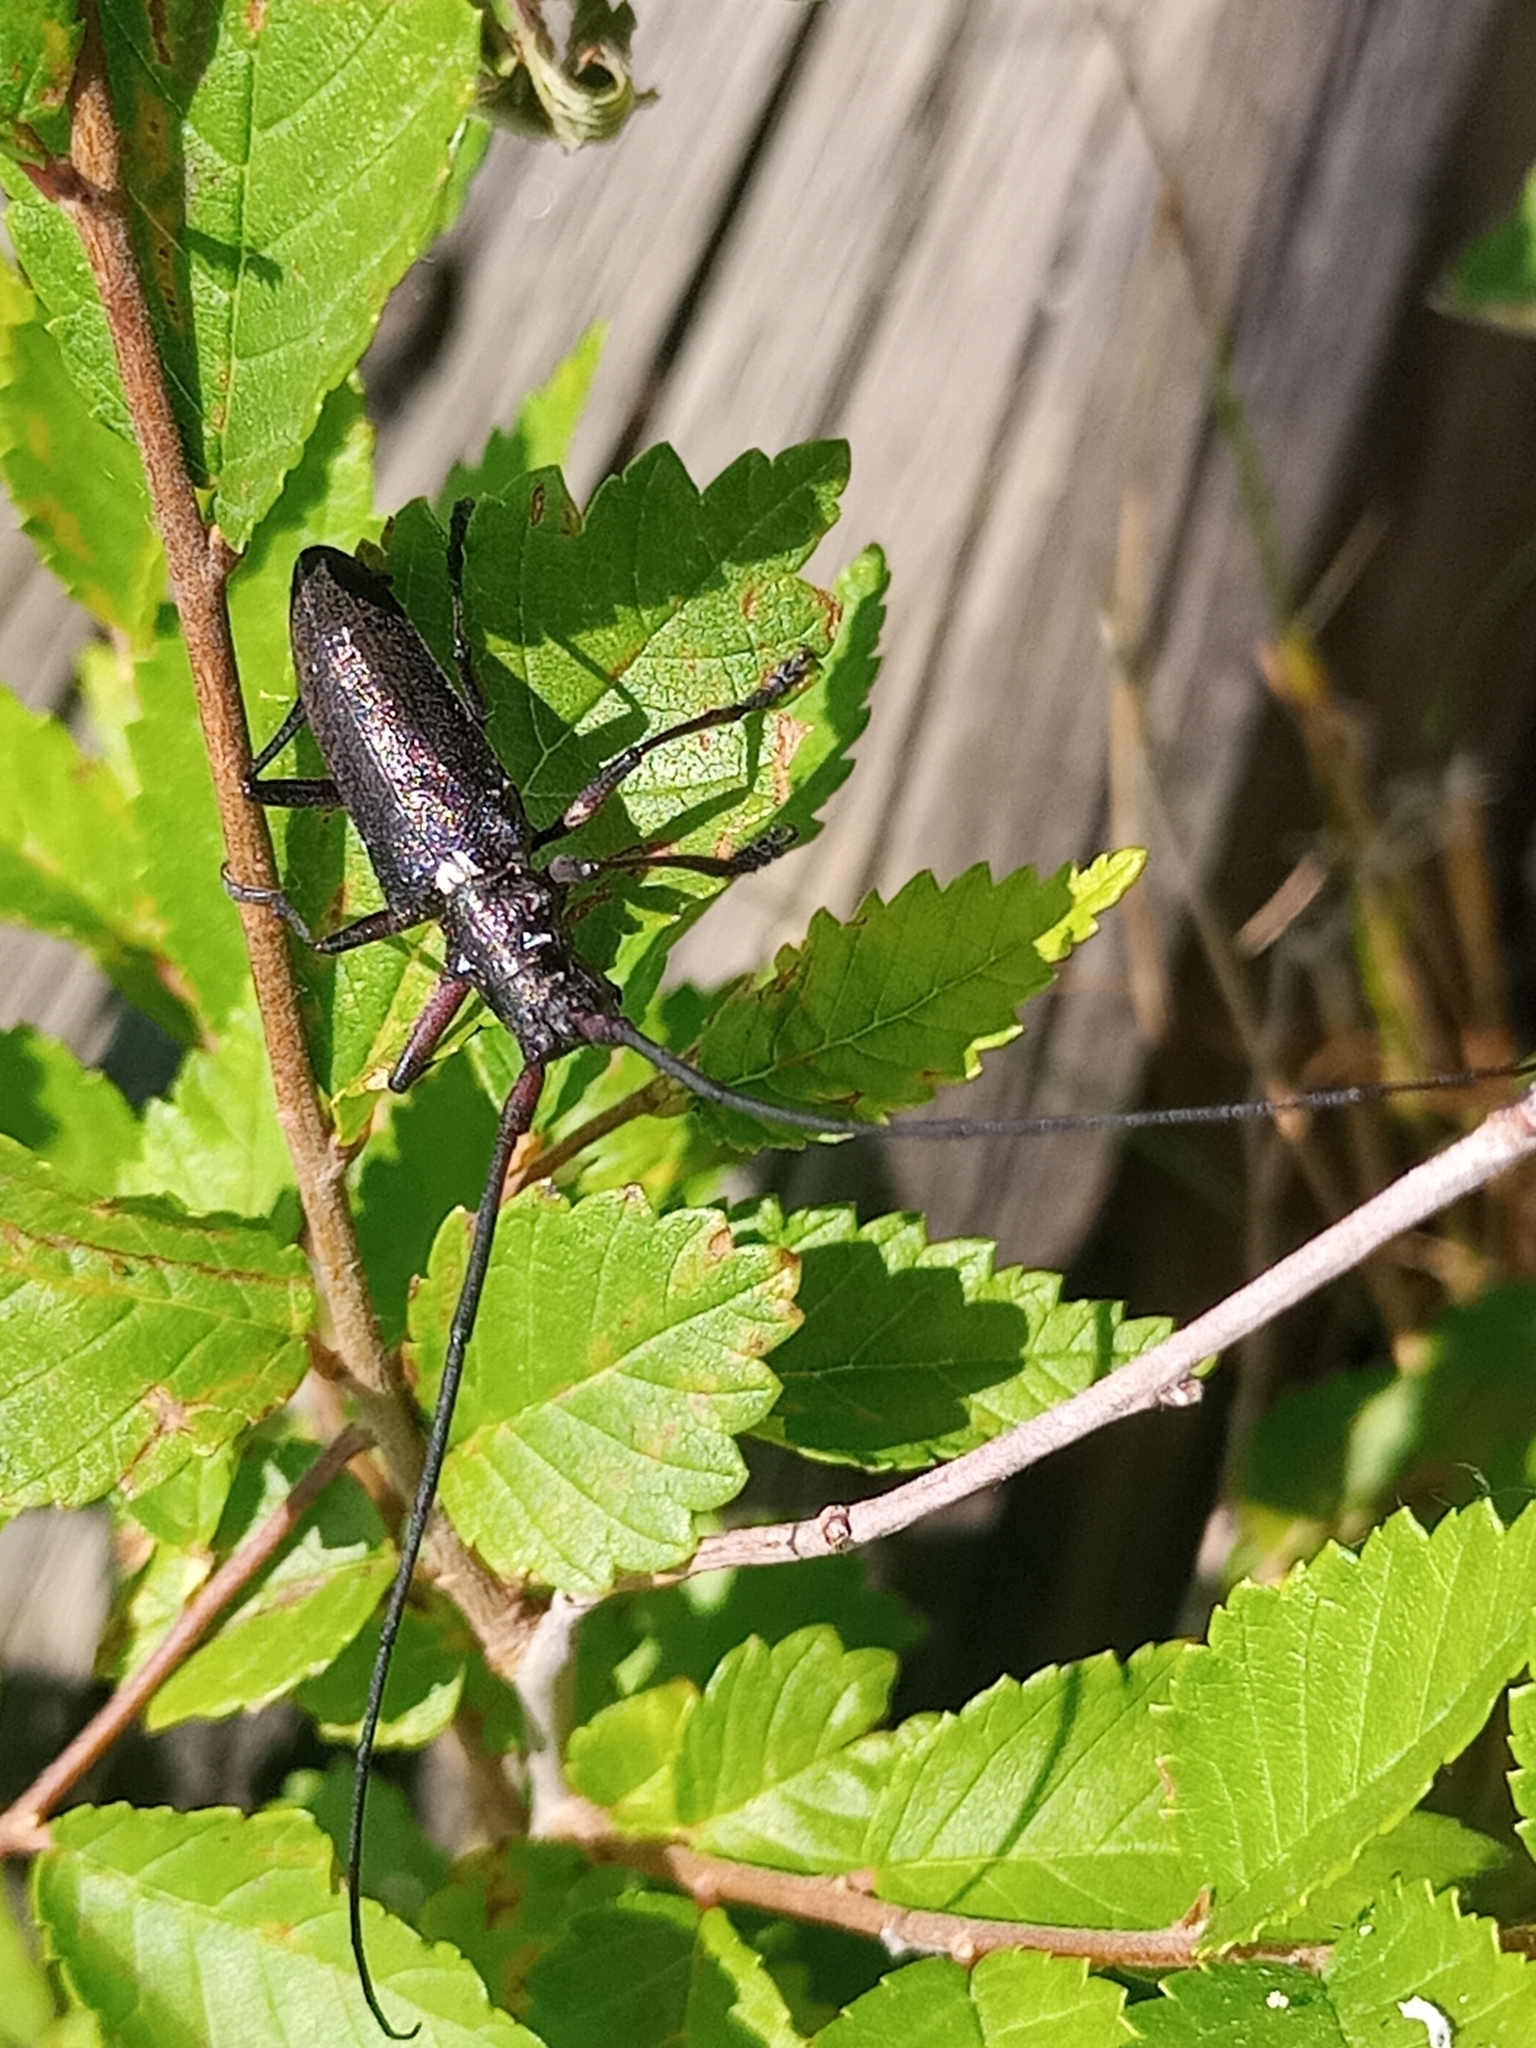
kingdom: Animalia
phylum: Arthropoda
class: Insecta
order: Coleoptera
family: Cerambycidae
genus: Monochamus
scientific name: Monochamus scutellatus
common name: White-spotted sawyer beetle
